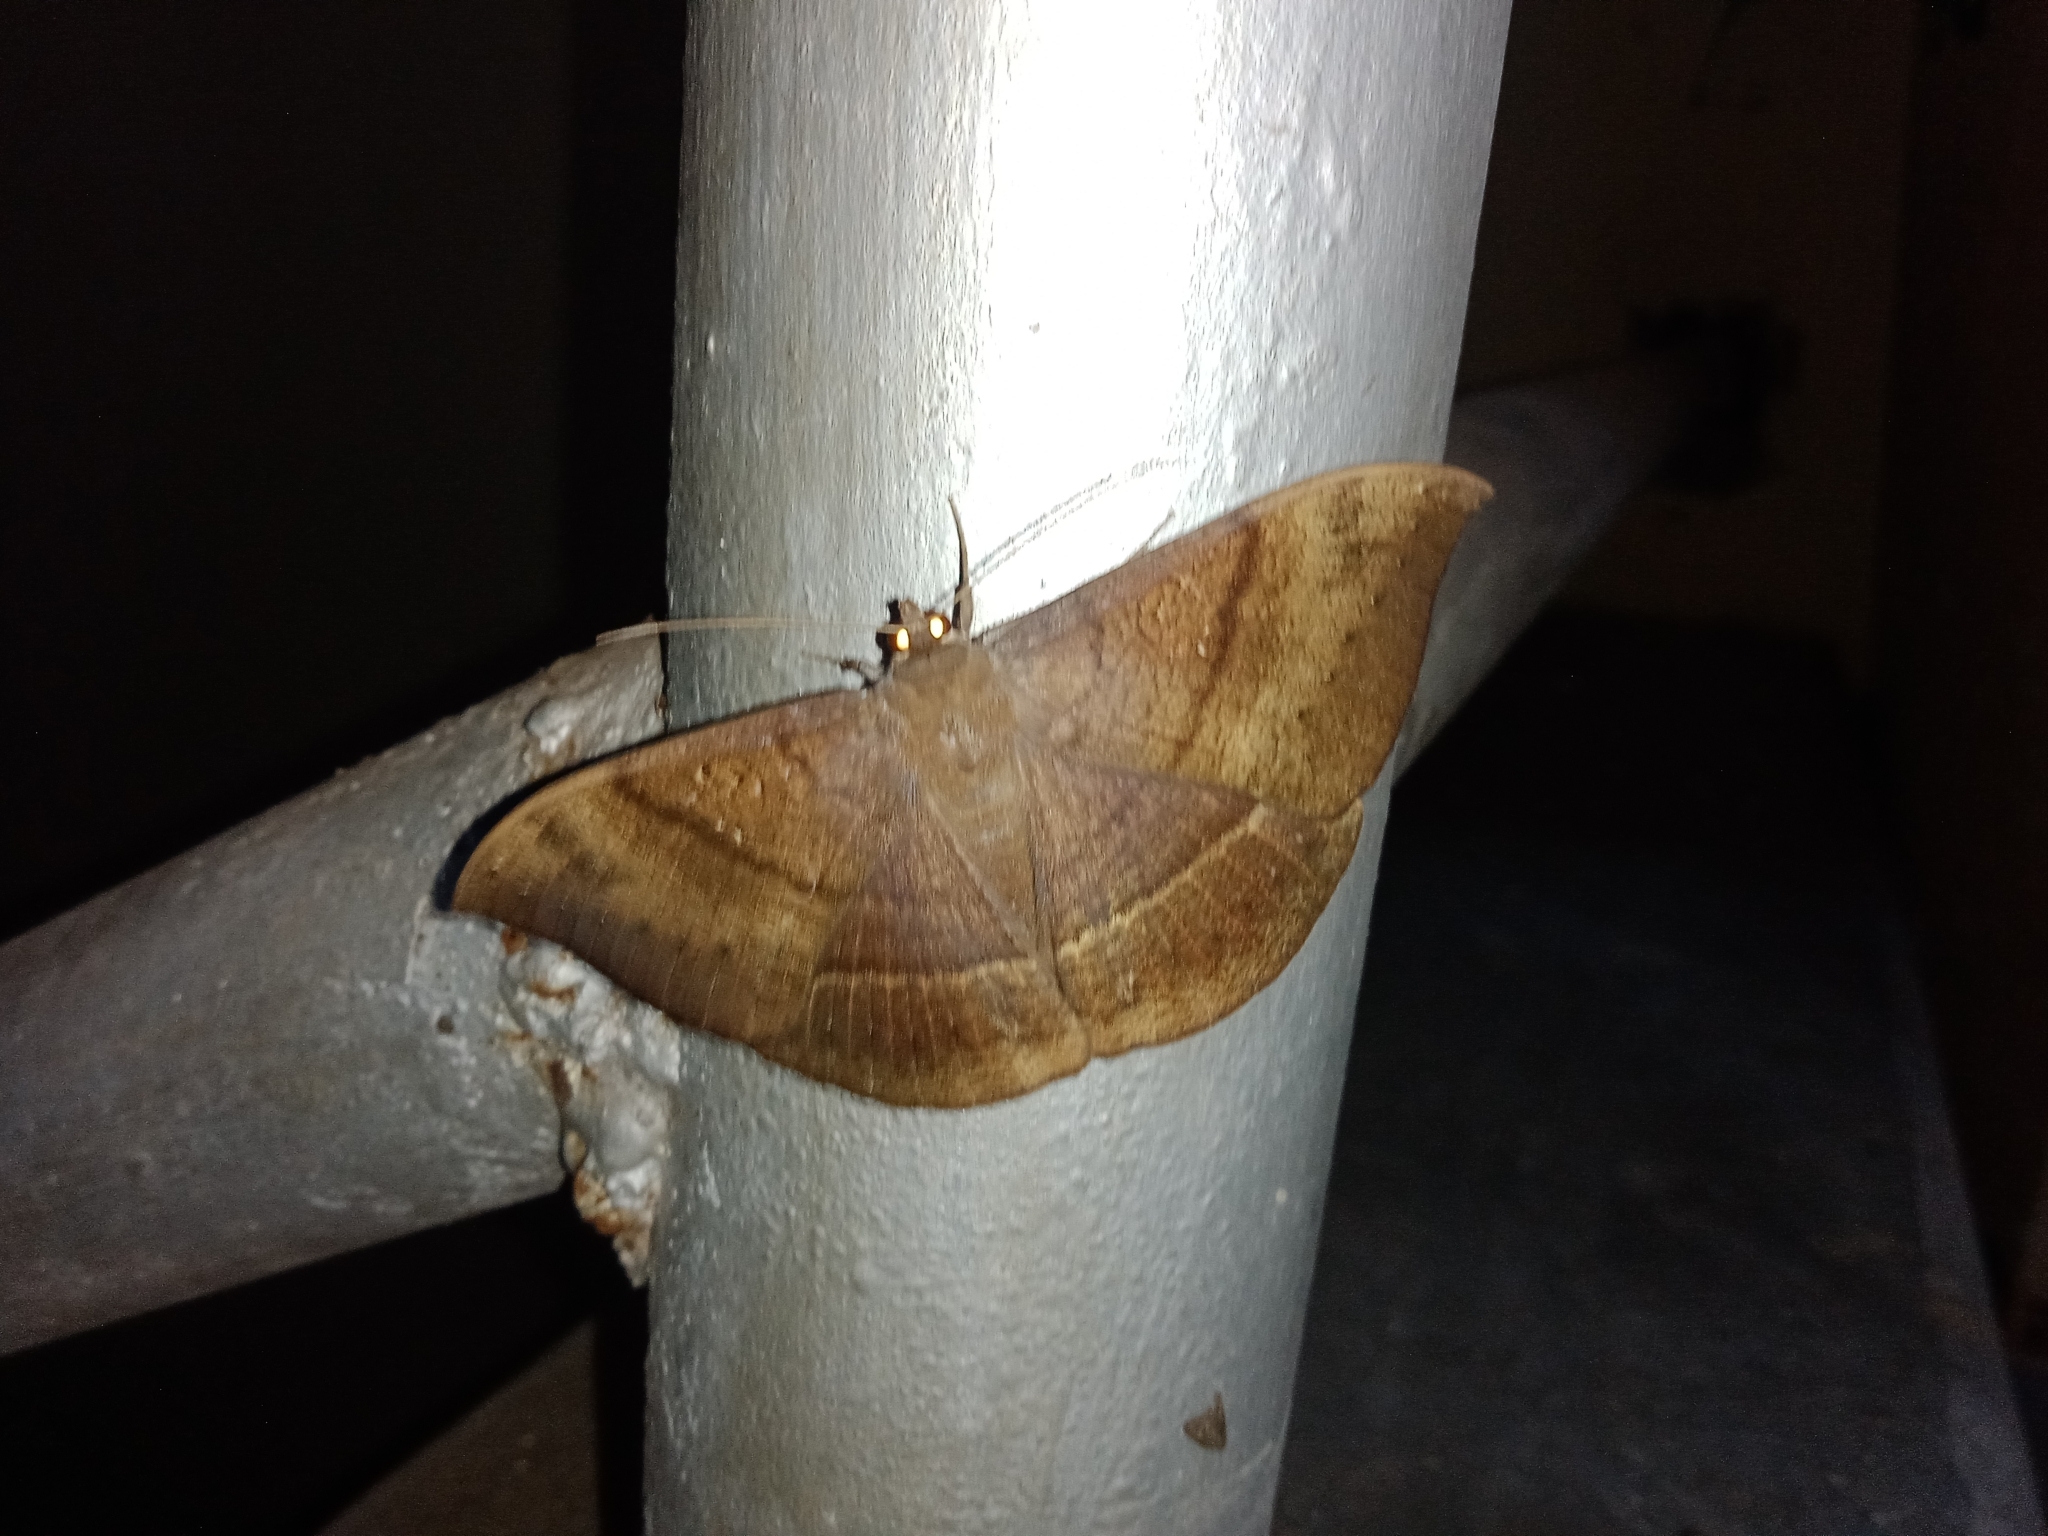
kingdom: Animalia
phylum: Arthropoda
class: Insecta
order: Lepidoptera
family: Erebidae
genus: Lygniodes
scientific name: Lygniodes vampyrus
